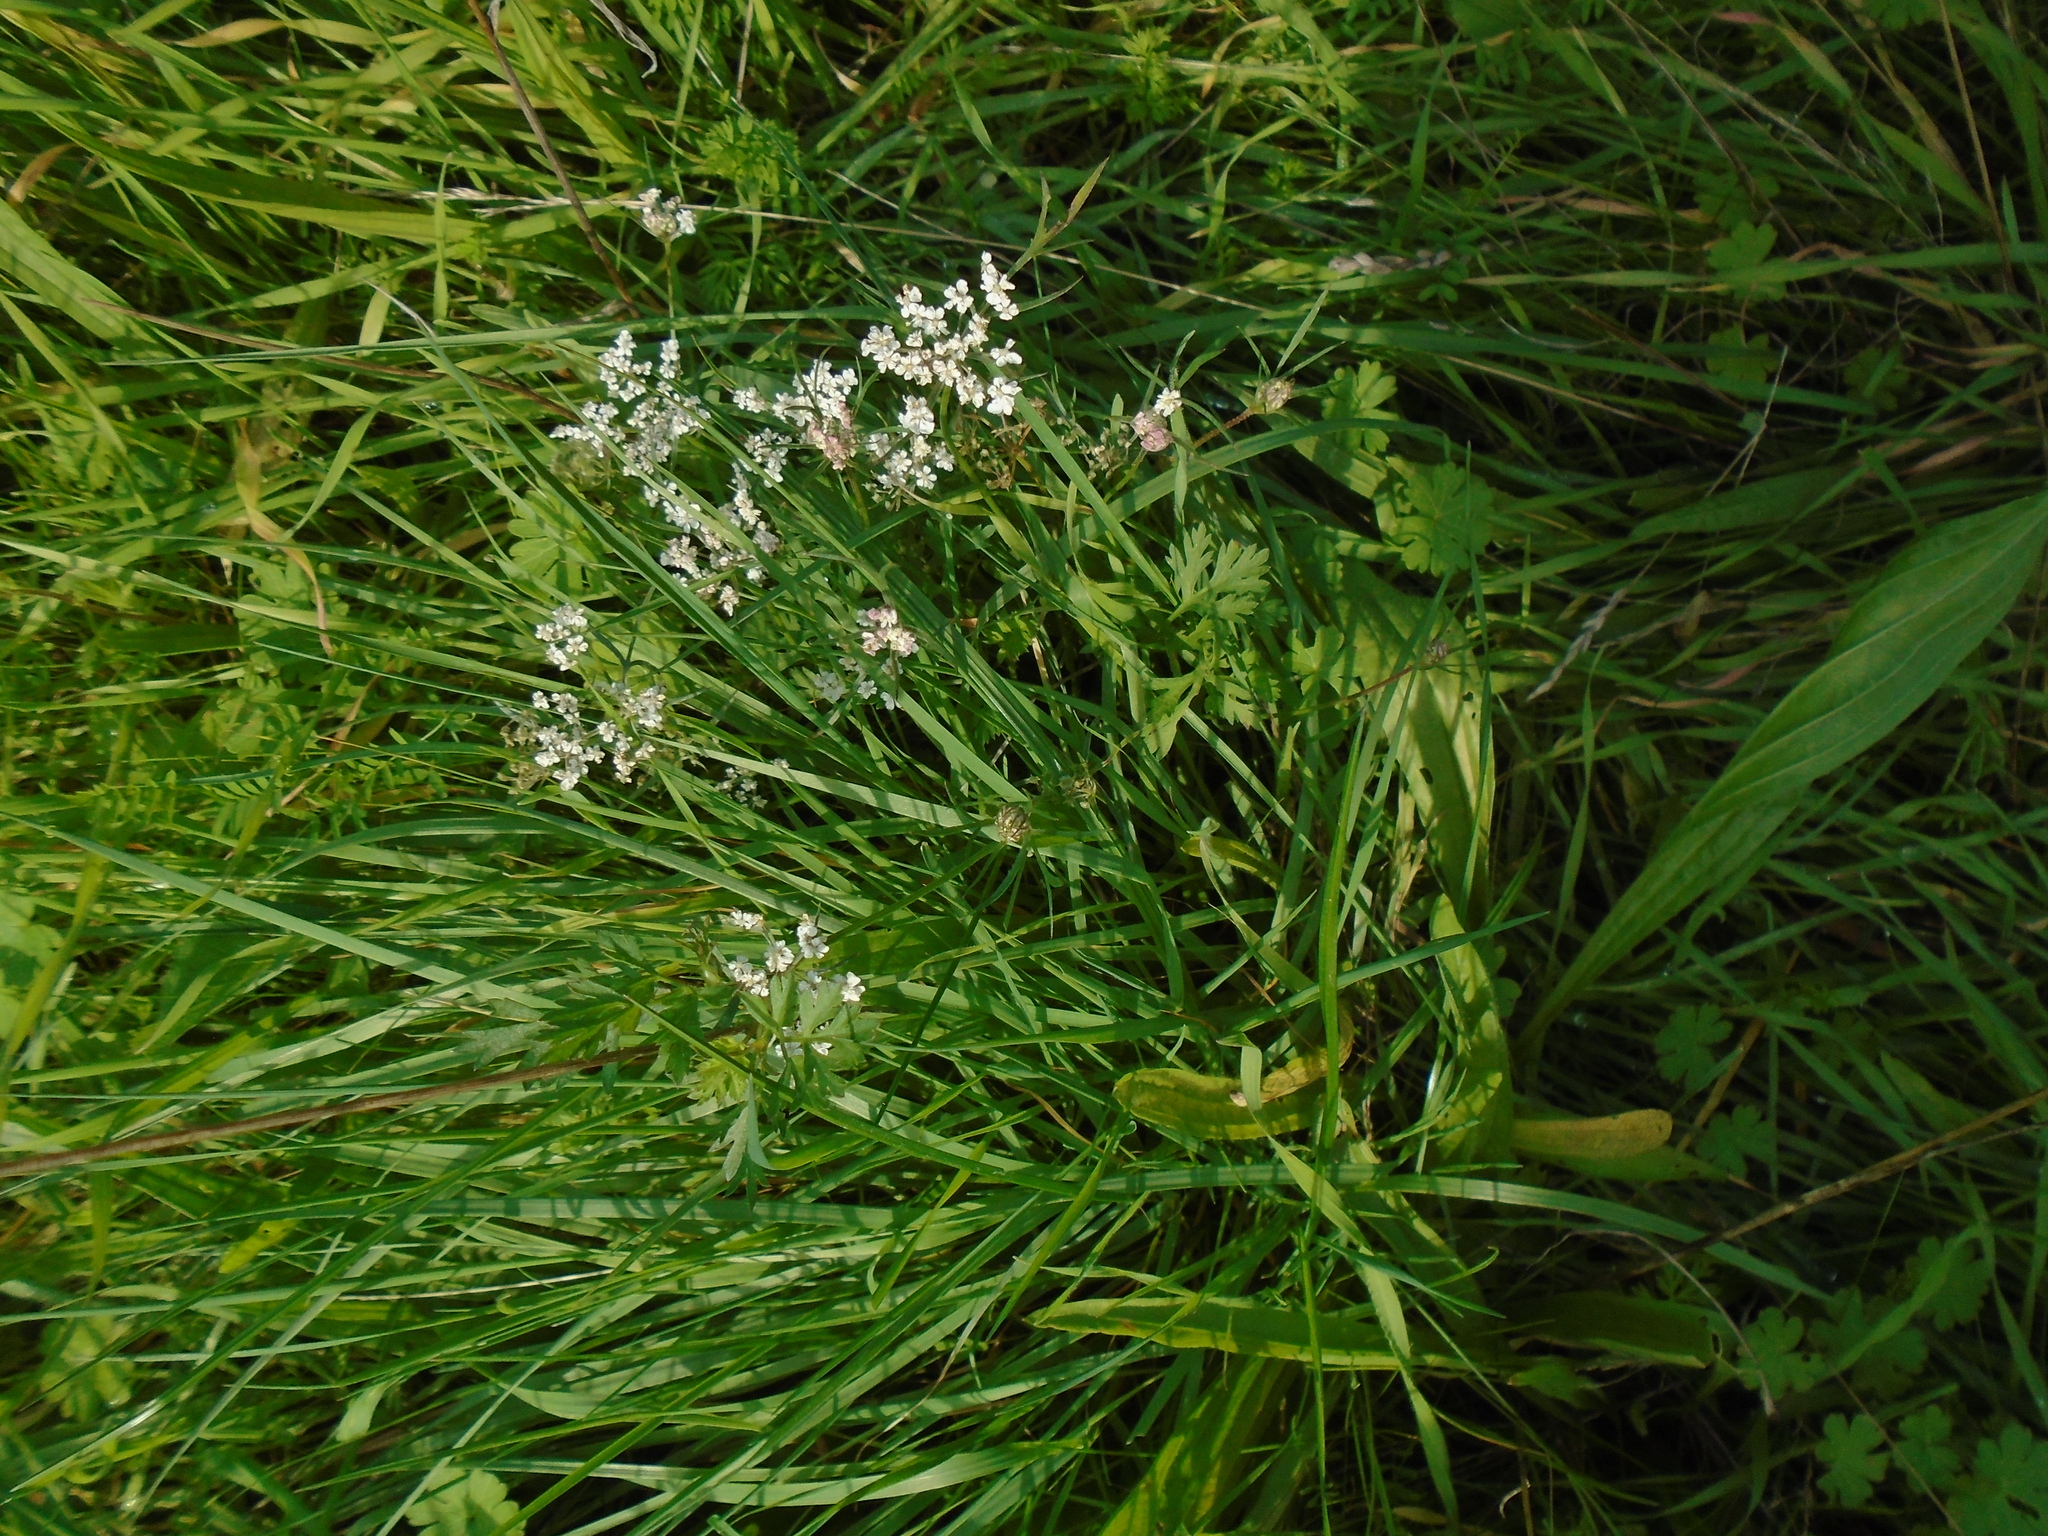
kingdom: Plantae
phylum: Tracheophyta
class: Magnoliopsida
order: Apiales
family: Apiaceae
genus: Daucus
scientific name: Daucus carota
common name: Wild carrot
